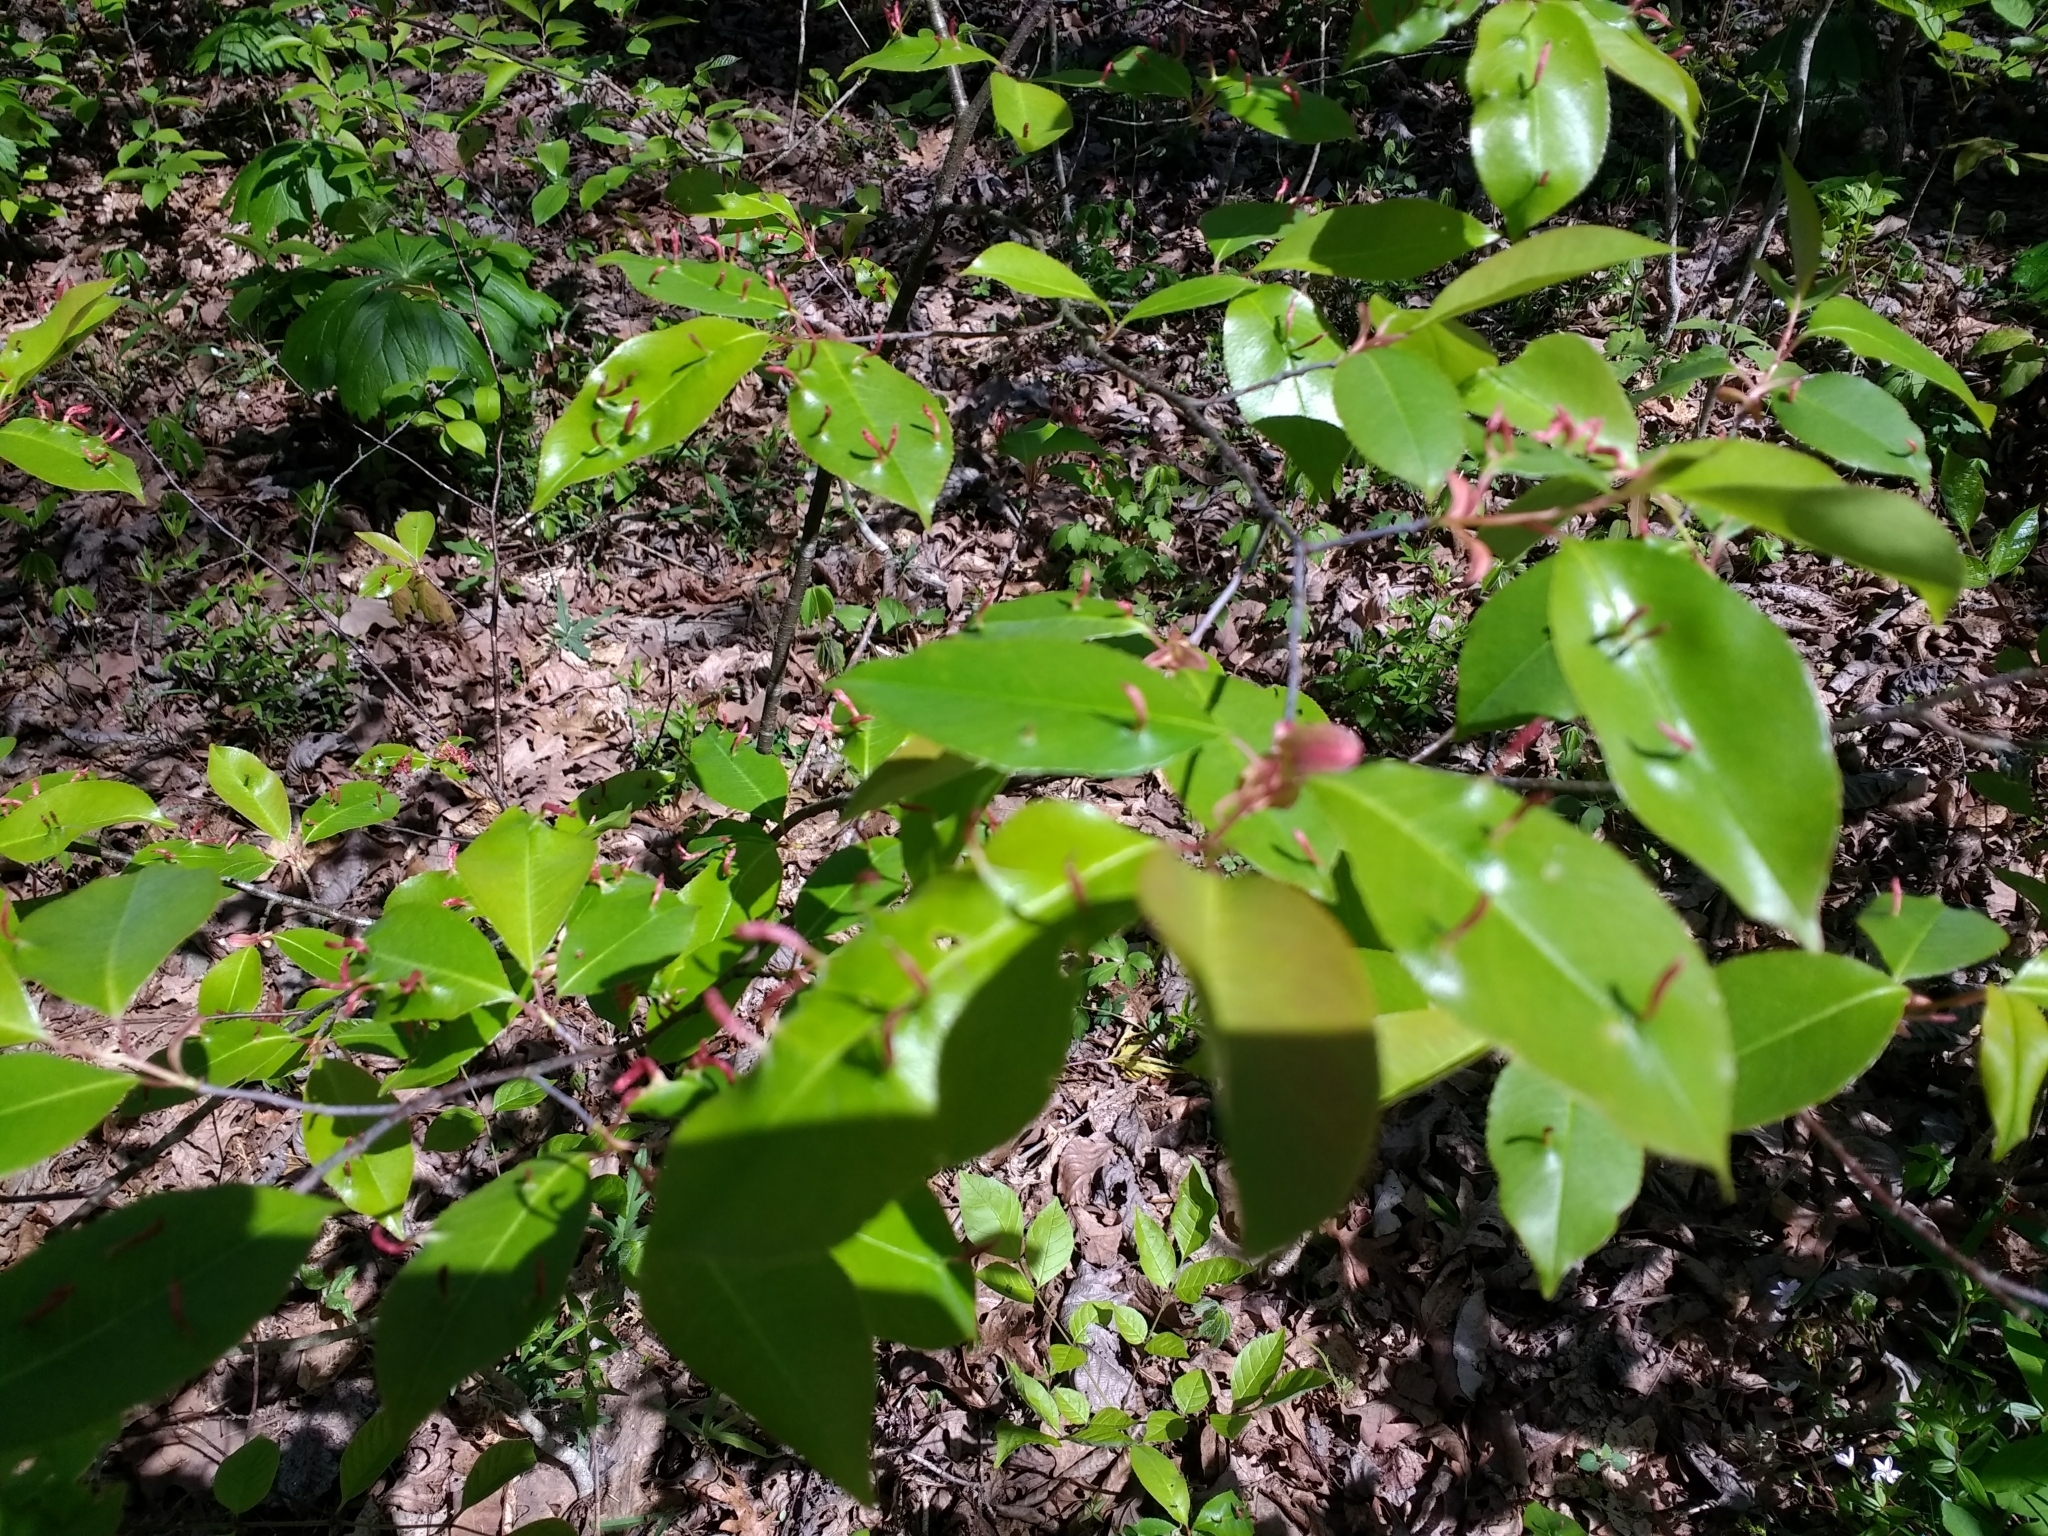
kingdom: Plantae
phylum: Tracheophyta
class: Magnoliopsida
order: Rosales
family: Rosaceae
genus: Prunus
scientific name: Prunus serotina
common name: Black cherry
